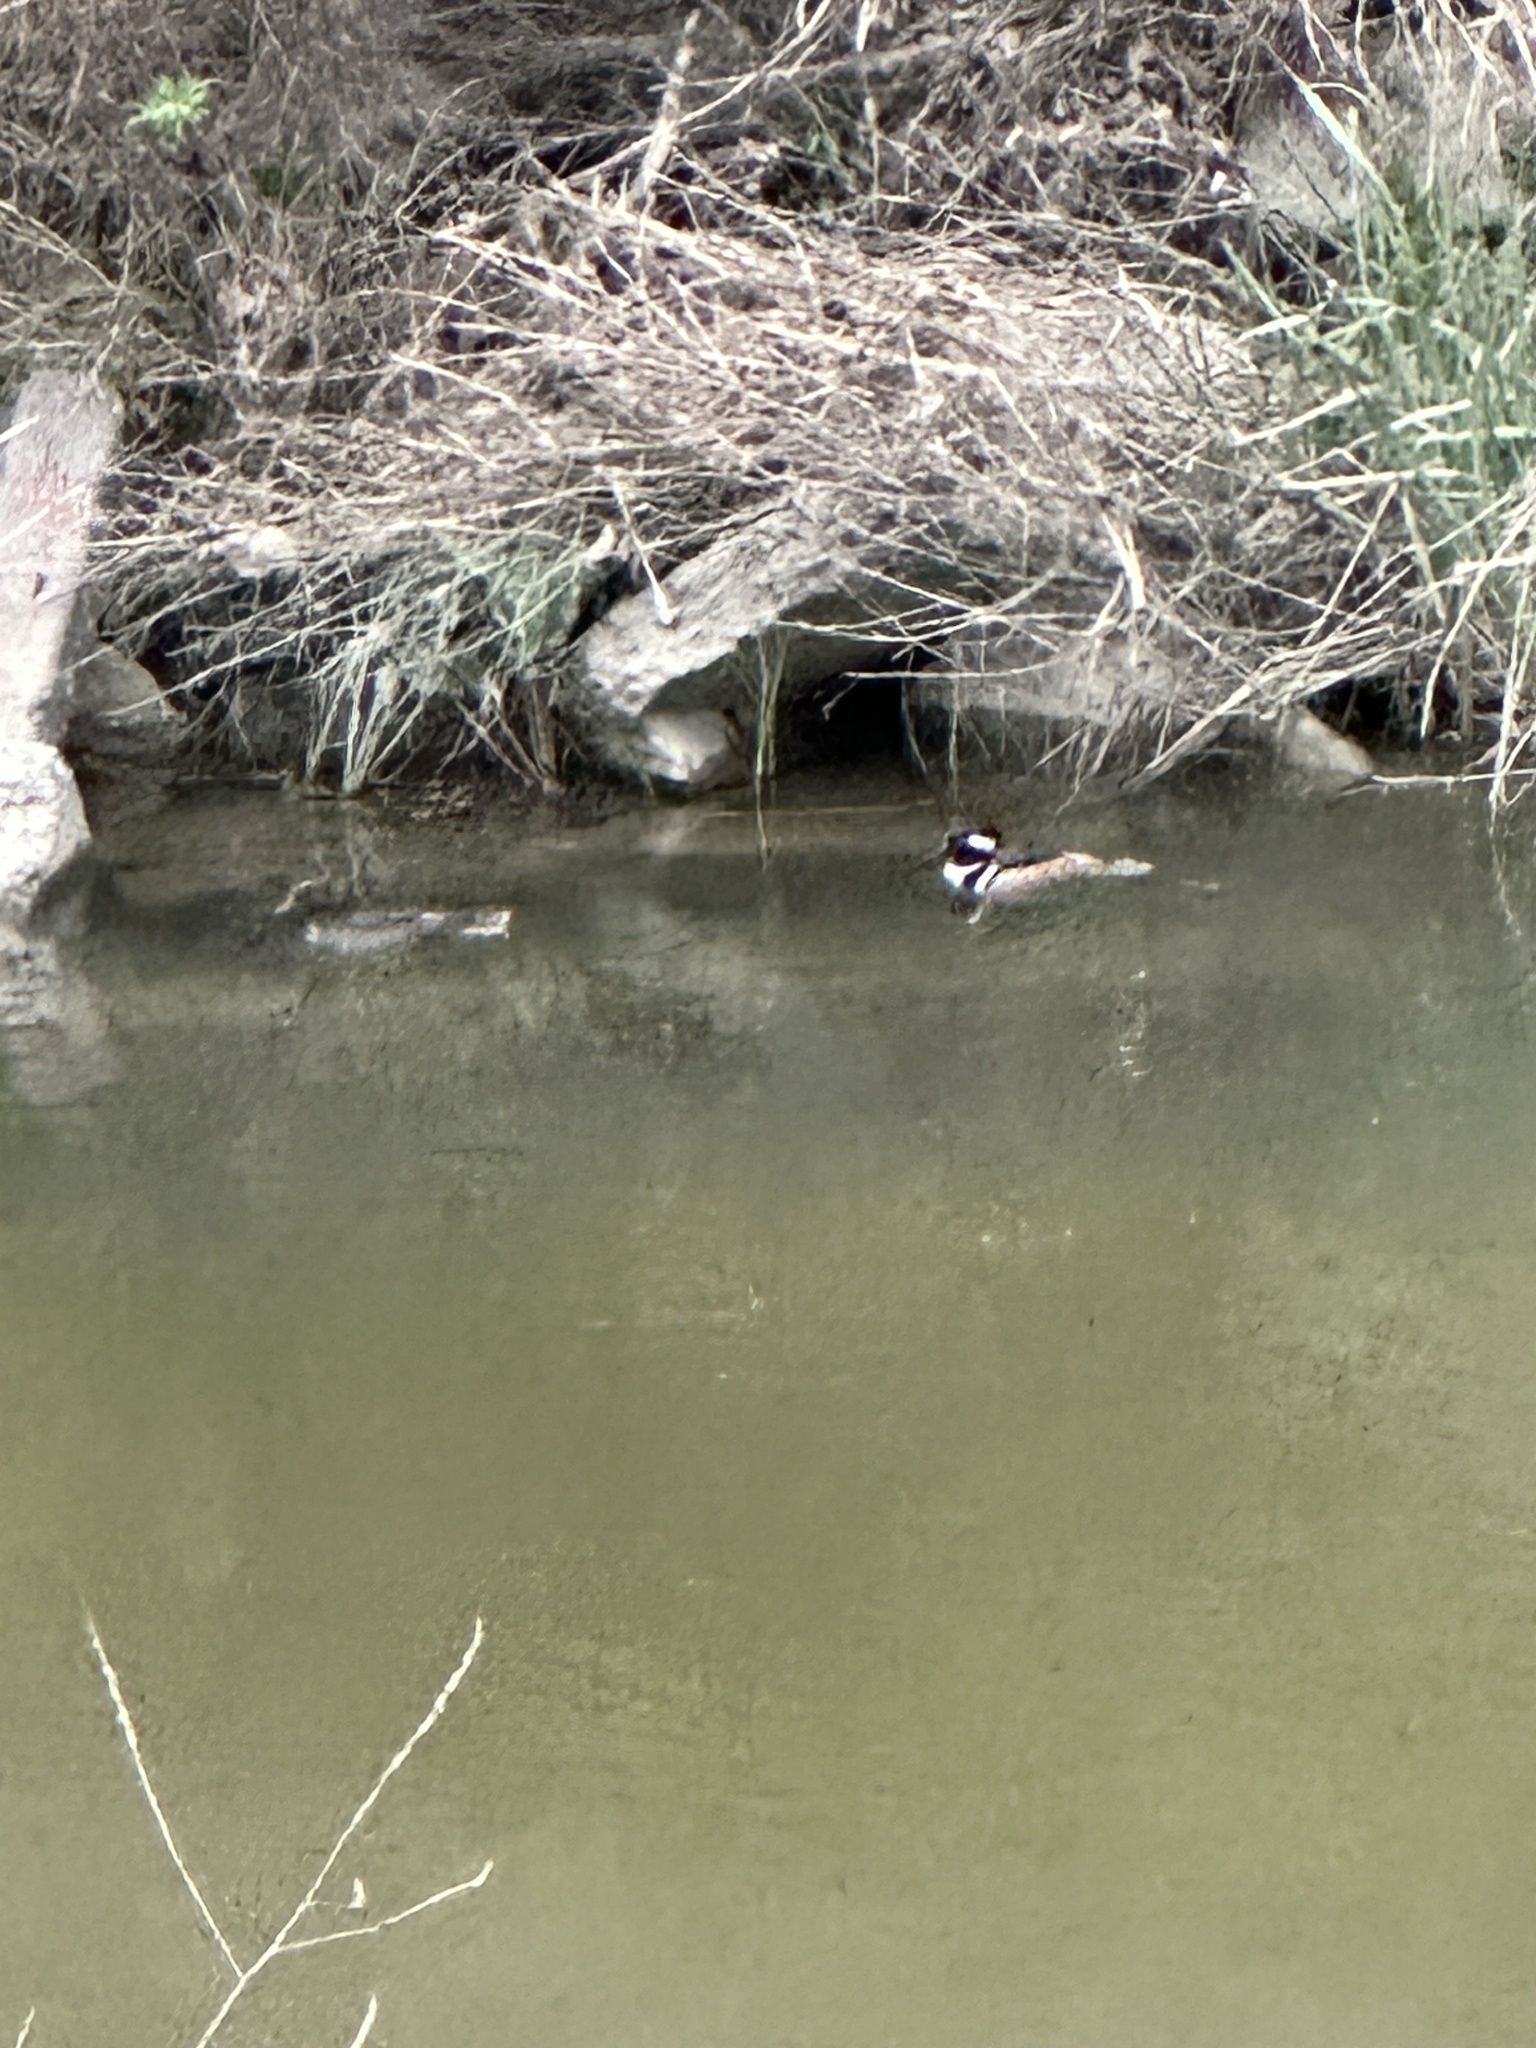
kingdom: Animalia
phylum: Chordata
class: Aves
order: Anseriformes
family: Anatidae
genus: Lophodytes
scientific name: Lophodytes cucullatus
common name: Hooded merganser
